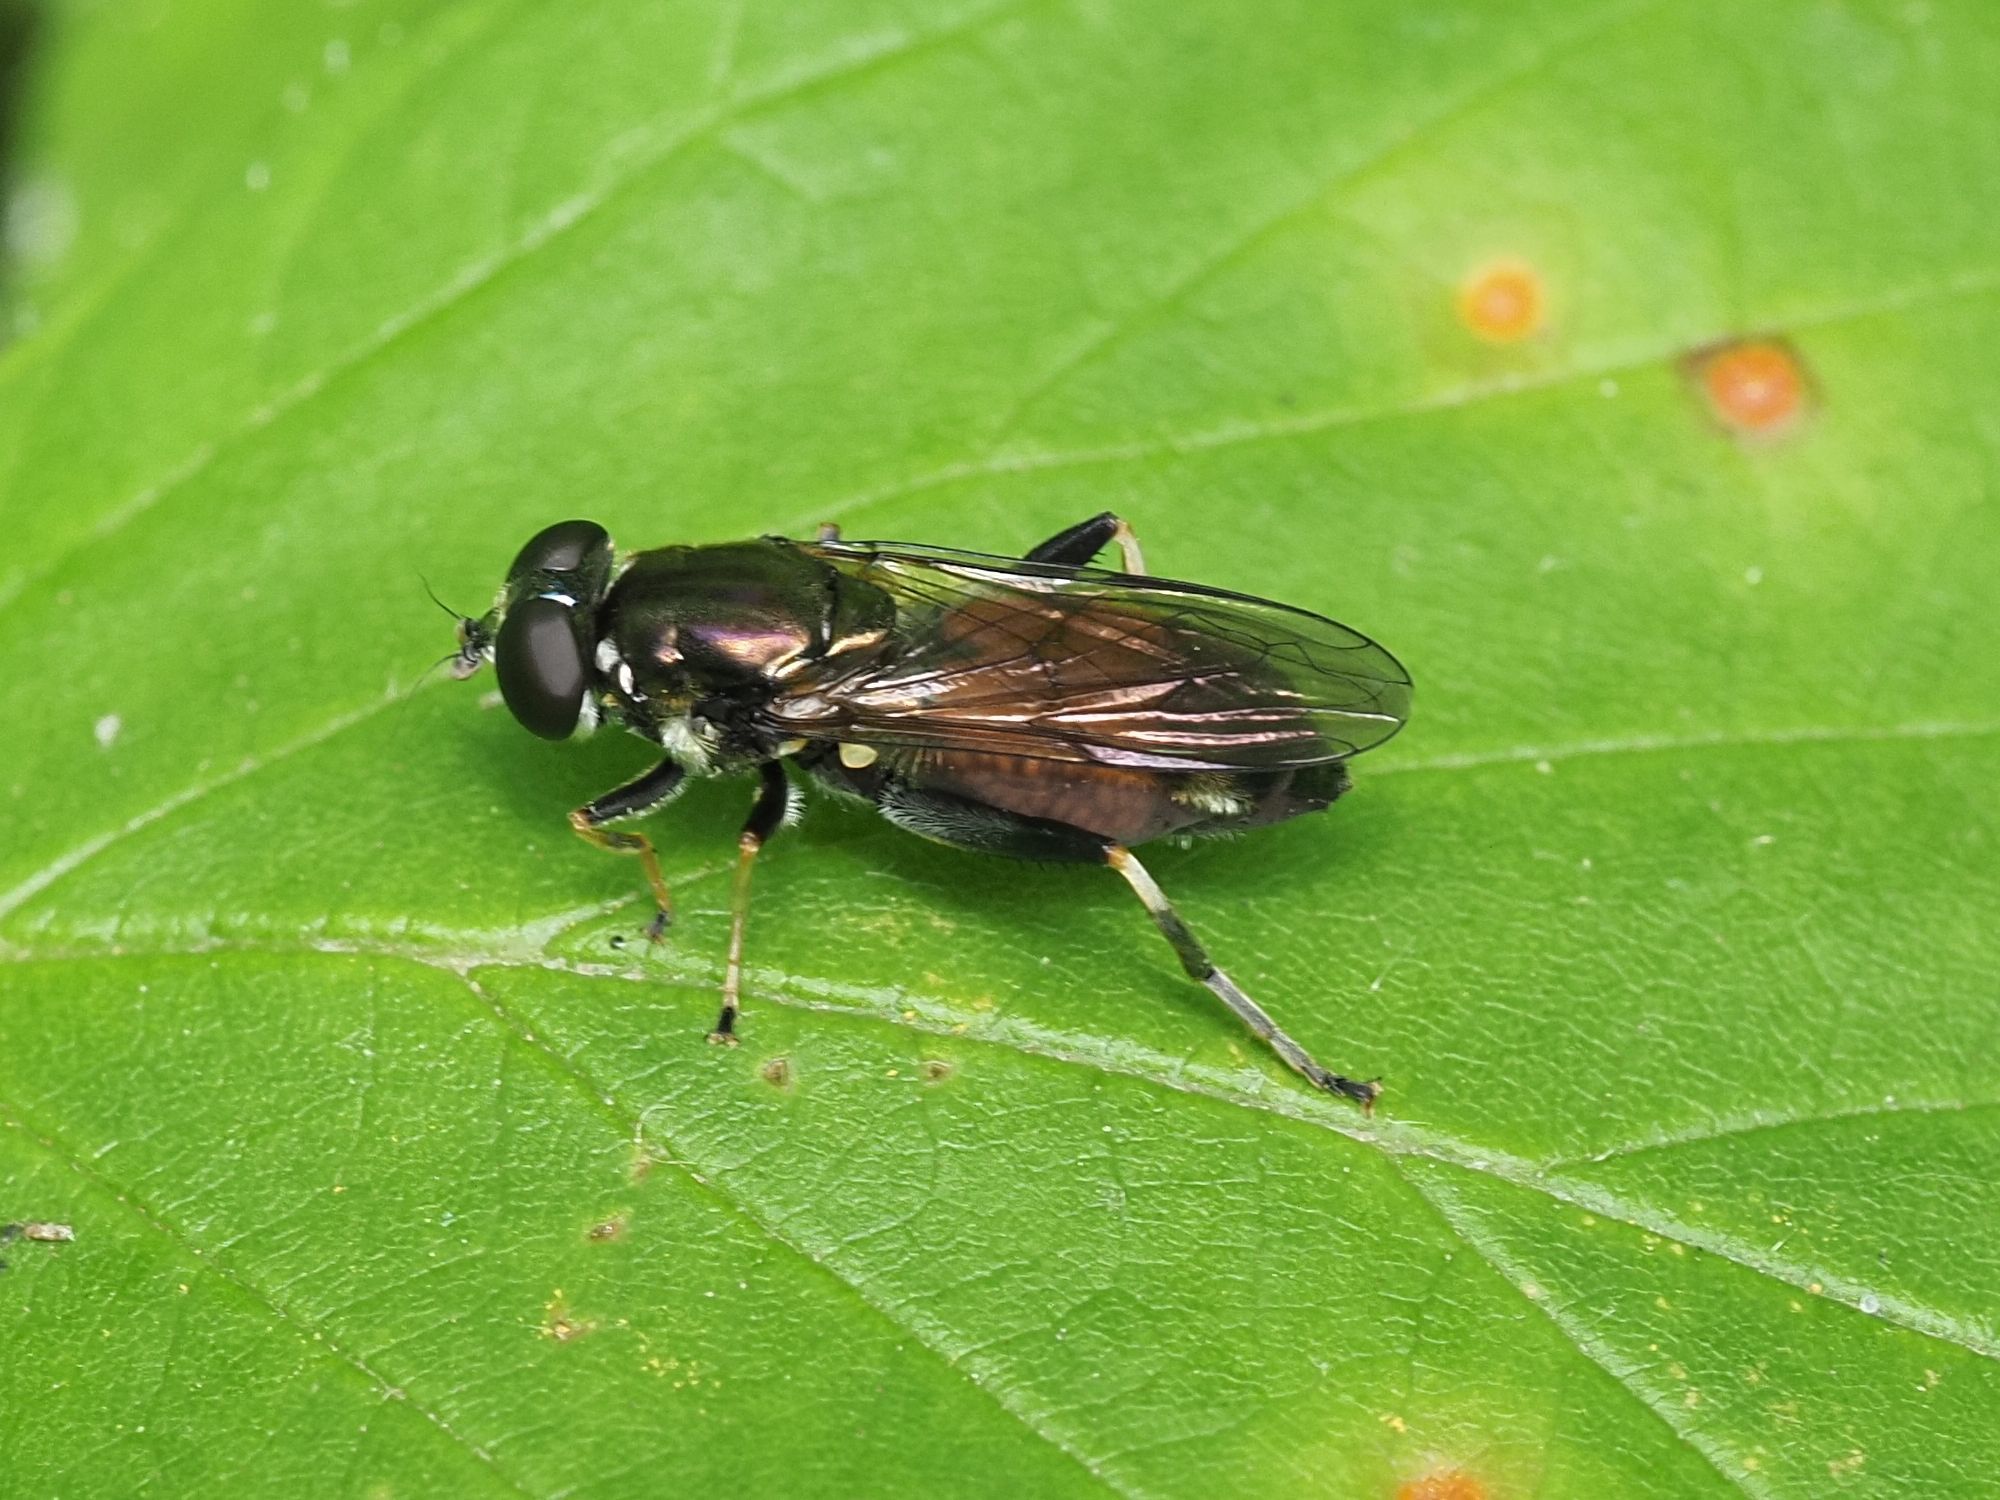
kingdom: Animalia
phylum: Arthropoda
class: Insecta
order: Diptera
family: Syrphidae
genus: Xylota
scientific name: Xylota segnis
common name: Brown-toed forest fly
